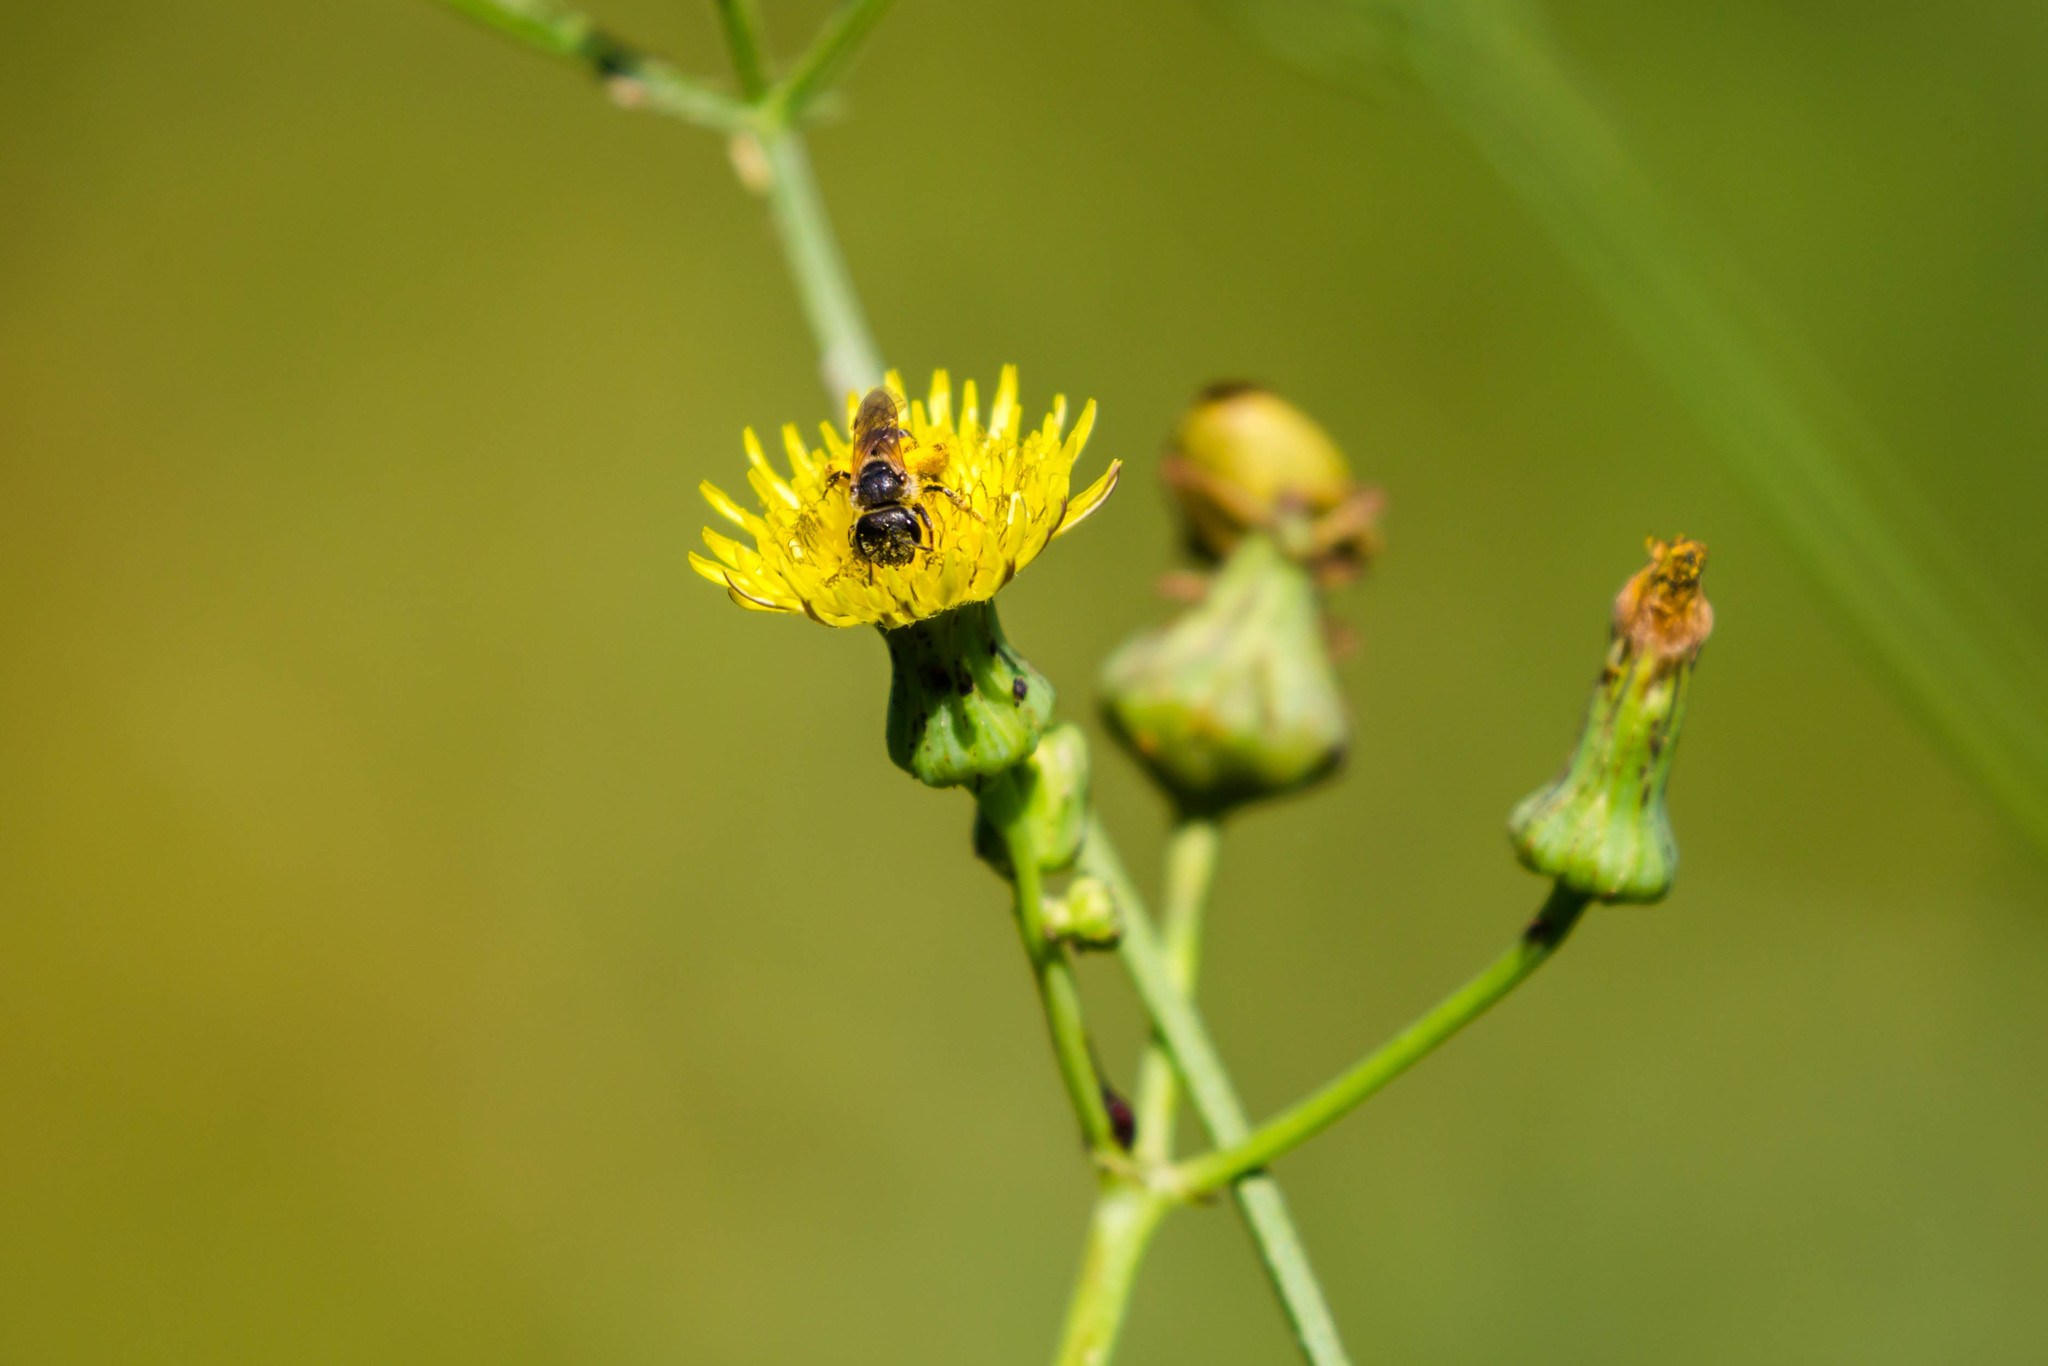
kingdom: Animalia
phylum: Arthropoda
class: Insecta
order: Hymenoptera
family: Halictidae
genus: Halictus
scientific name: Halictus ligatus
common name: Ligated furrow bee
